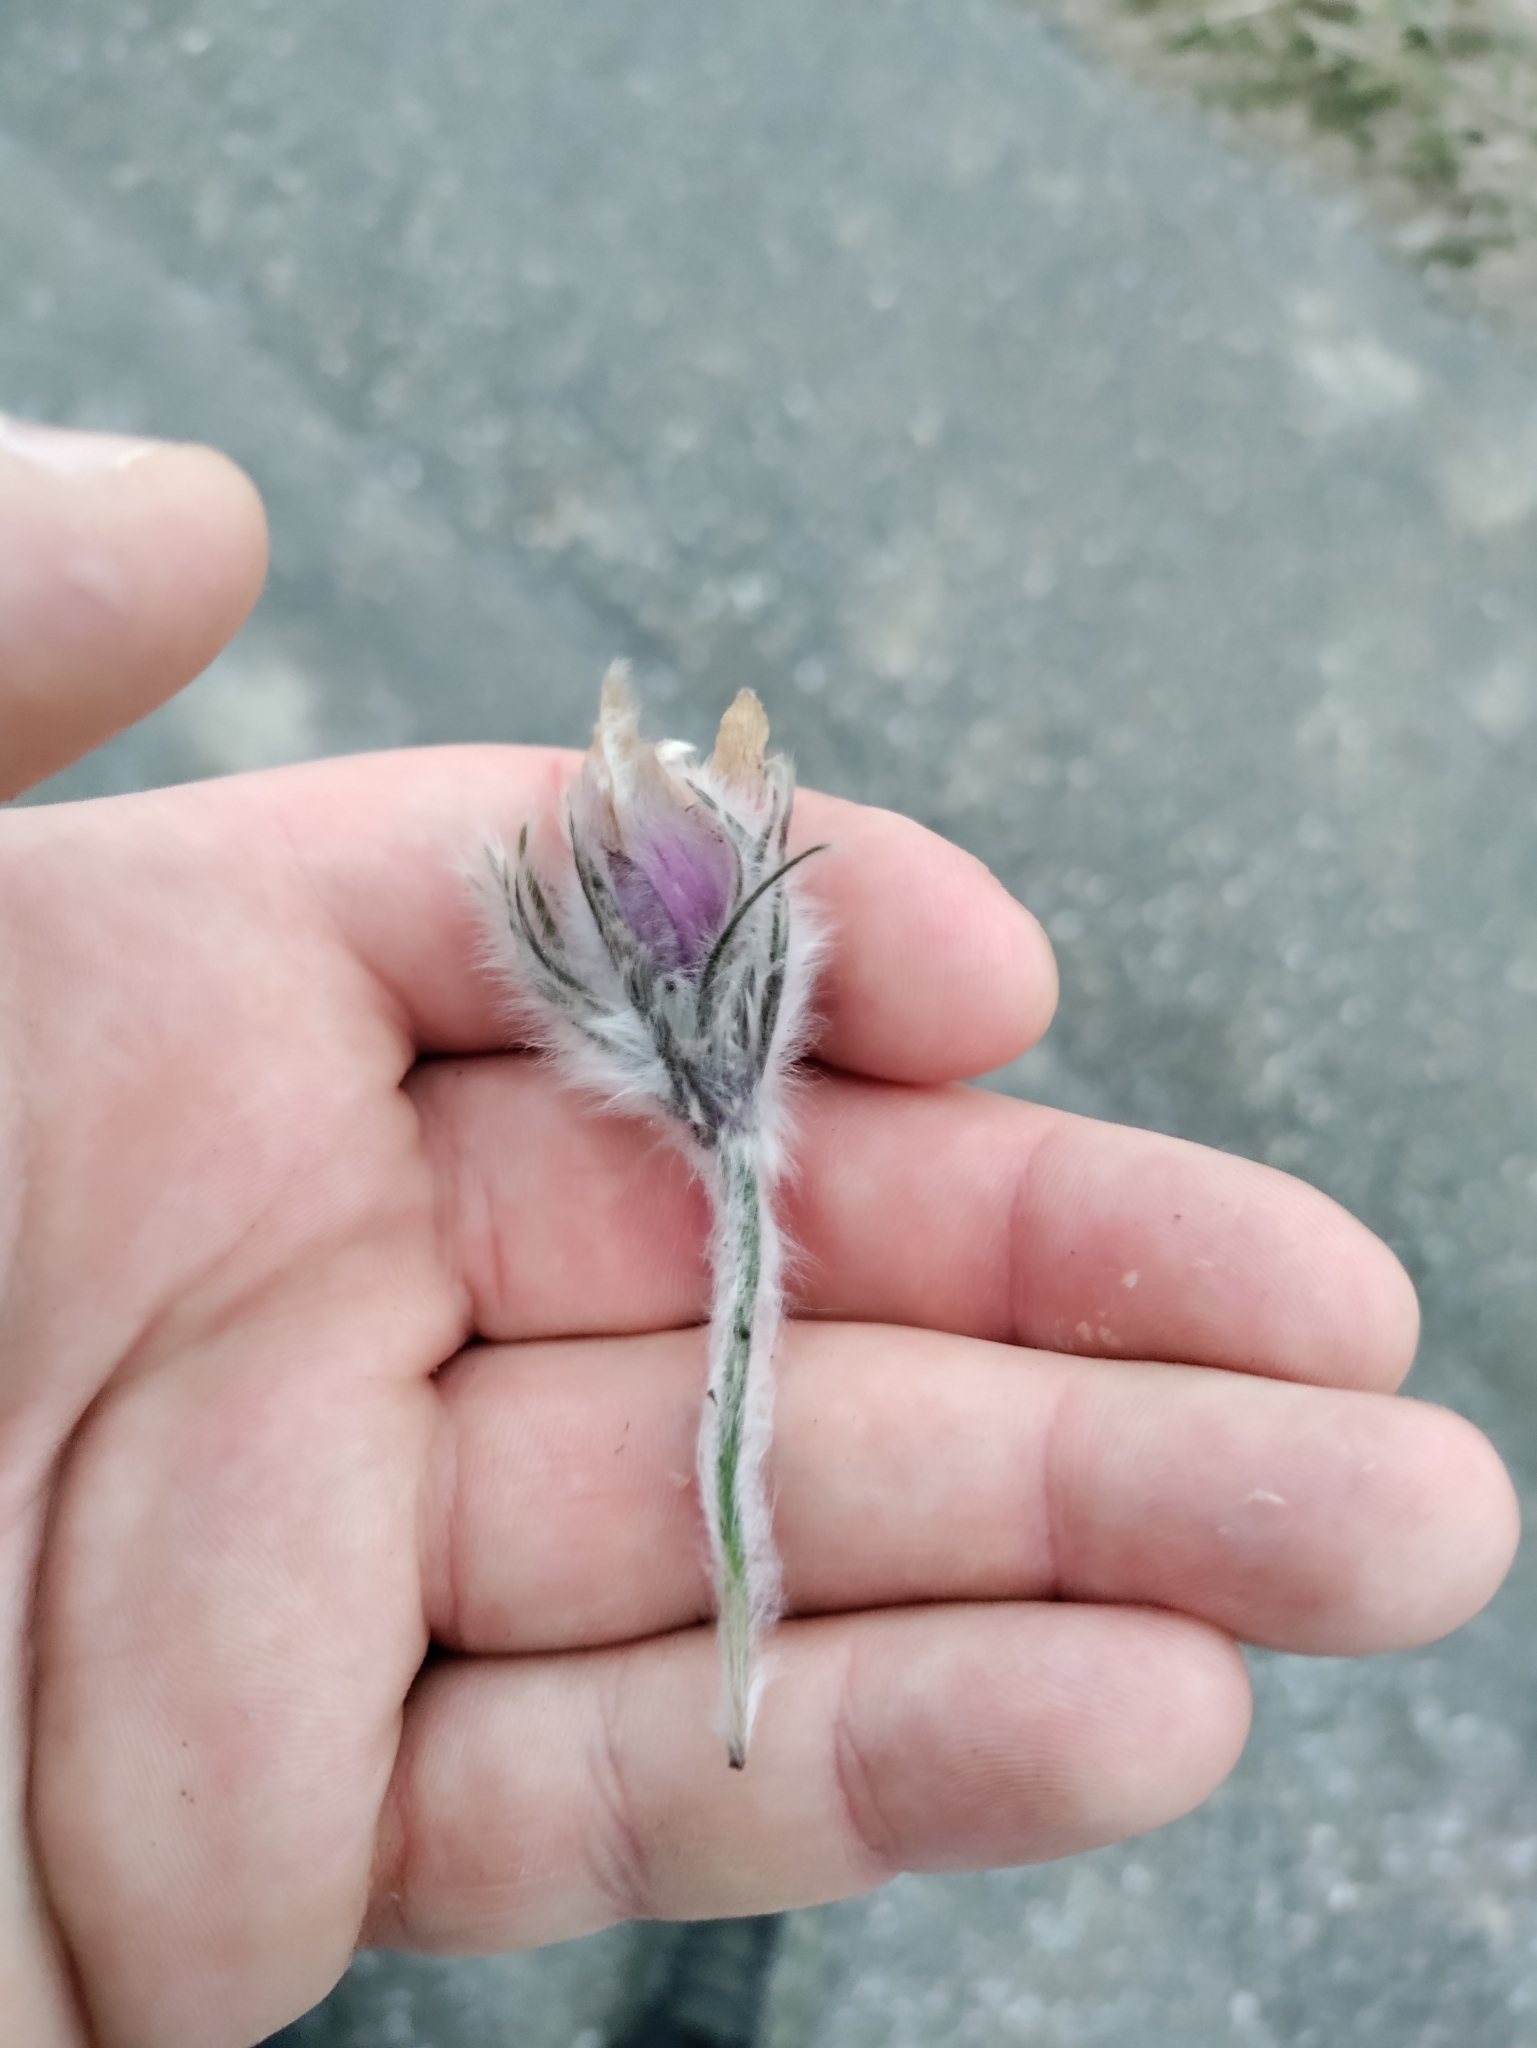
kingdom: Plantae
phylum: Tracheophyta
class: Magnoliopsida
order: Ranunculales
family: Ranunculaceae
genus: Pulsatilla
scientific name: Pulsatilla grandis
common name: Greater pasque flower
